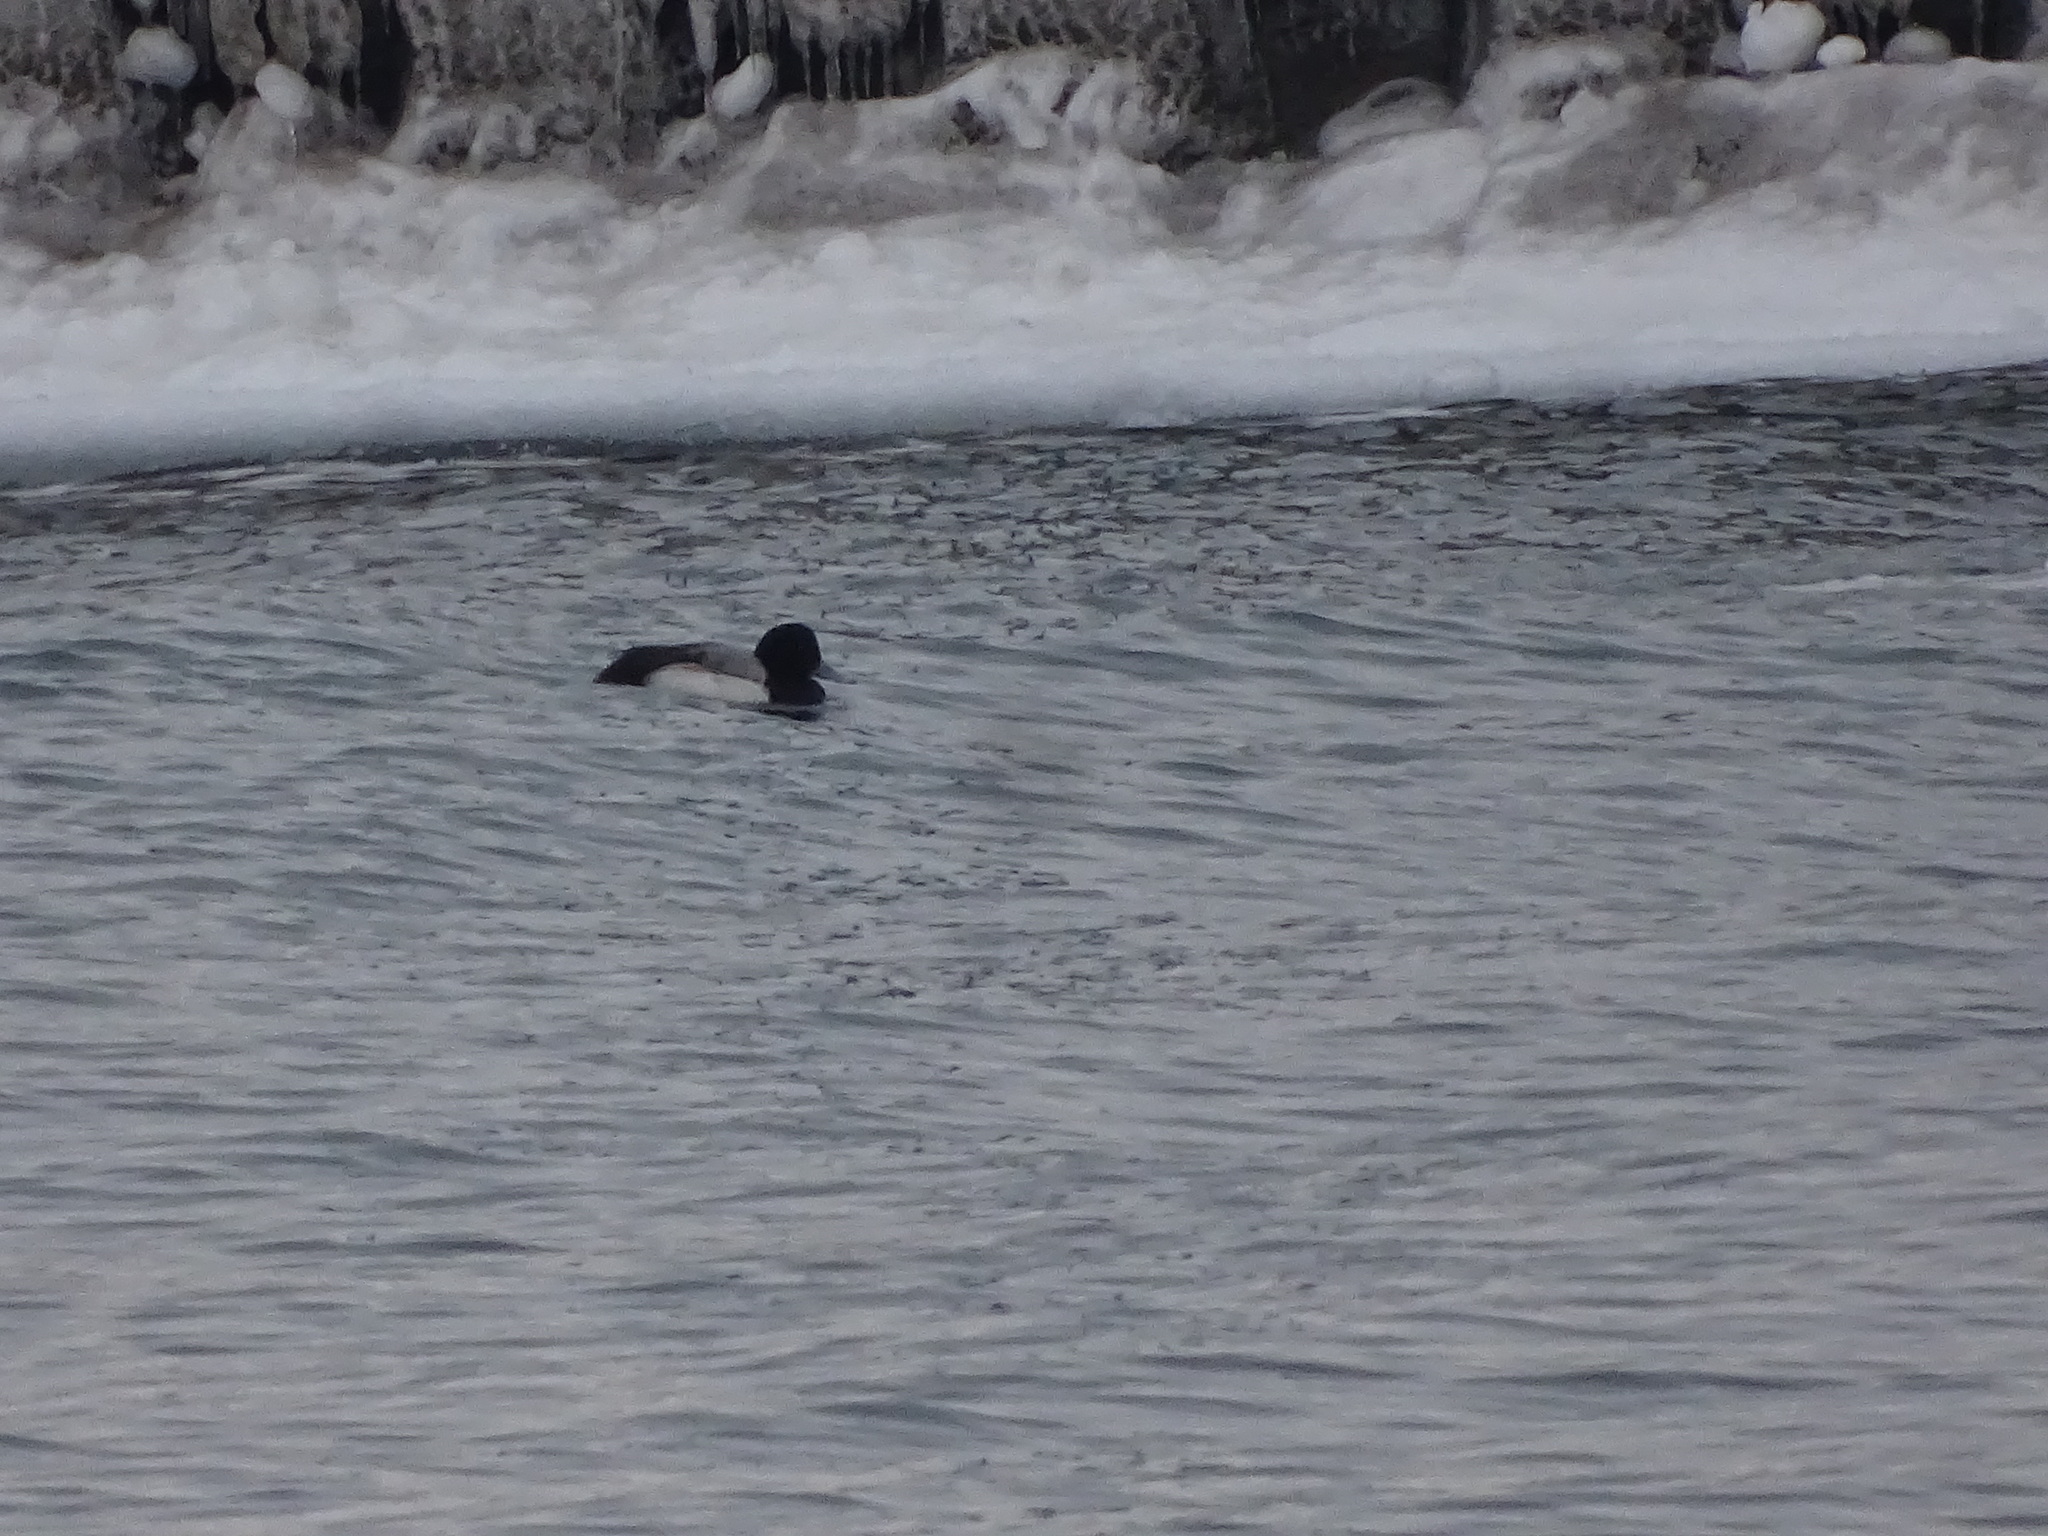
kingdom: Animalia
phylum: Chordata
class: Aves
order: Anseriformes
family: Anatidae
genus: Aythya
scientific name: Aythya marila
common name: Greater scaup
